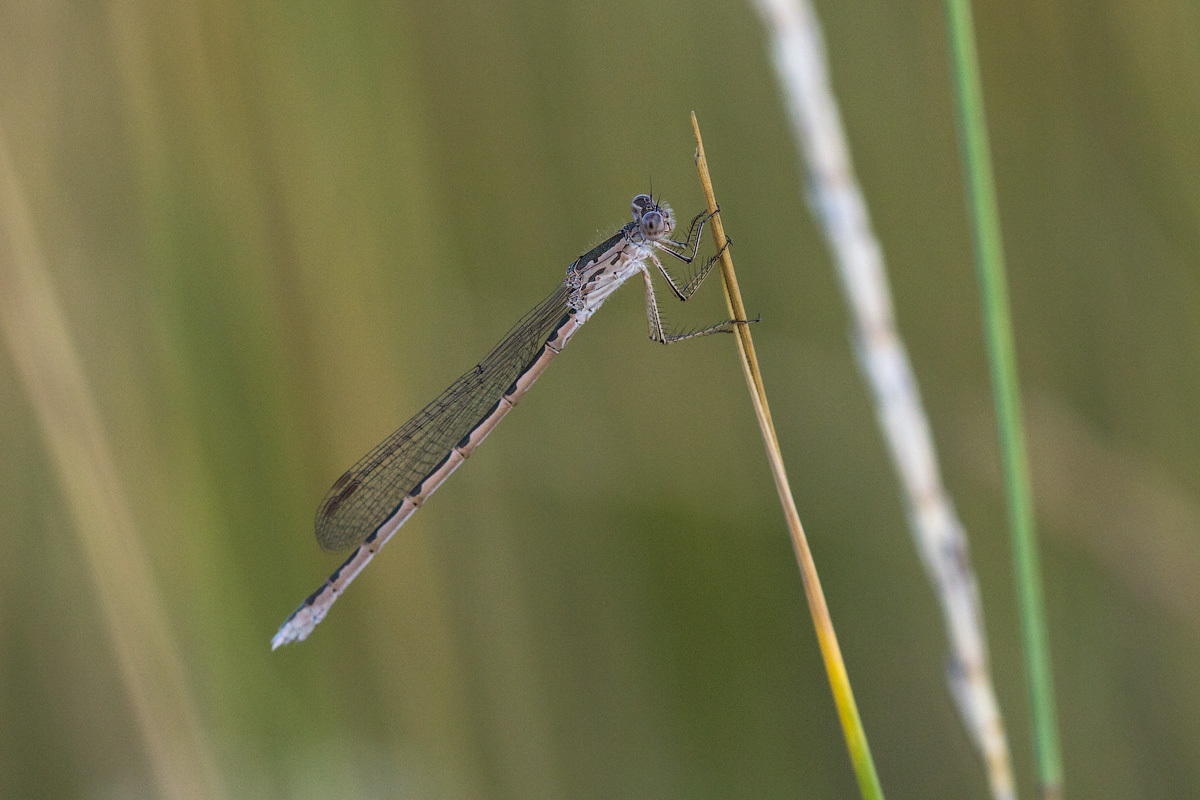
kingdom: Animalia
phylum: Arthropoda
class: Insecta
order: Odonata
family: Lestidae
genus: Sympecma
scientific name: Sympecma paedisca
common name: Siberian winter damsel
